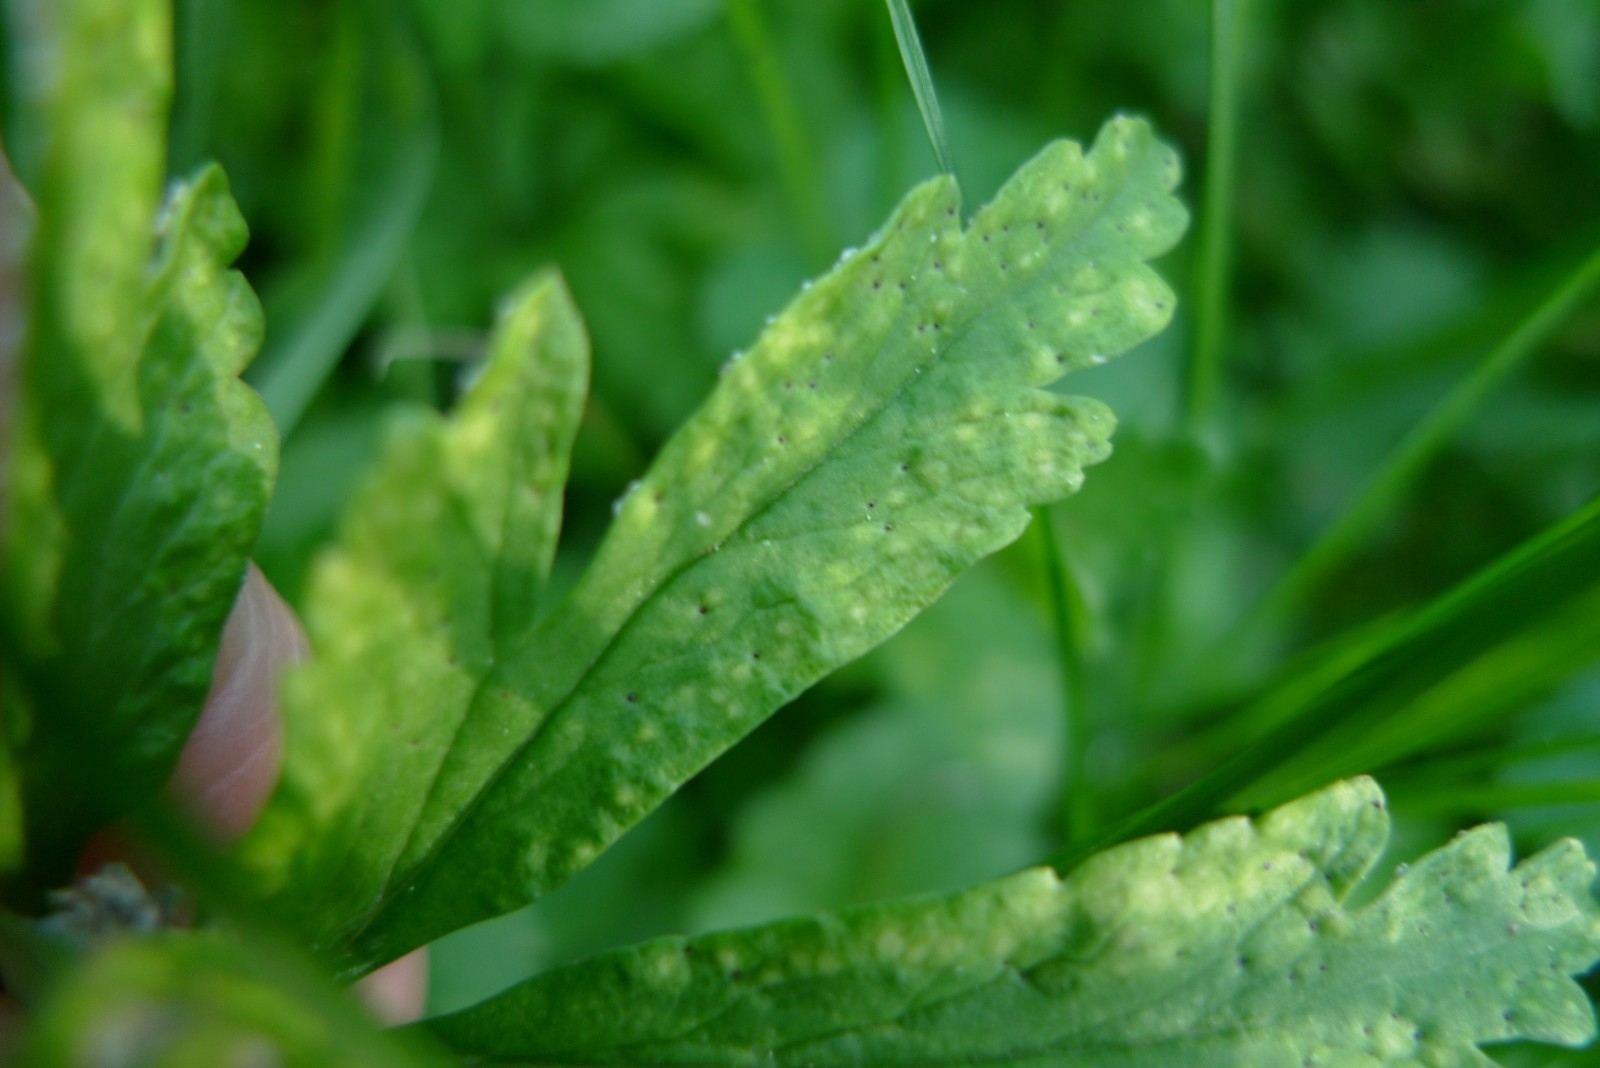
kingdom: Fungi
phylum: Basidiomycota
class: Pucciniomycetes
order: Pucciniales
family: Tranzscheliaceae
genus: Tranzschelia
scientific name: Tranzschelia pruni-spinosae
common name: Blackthorn rust
